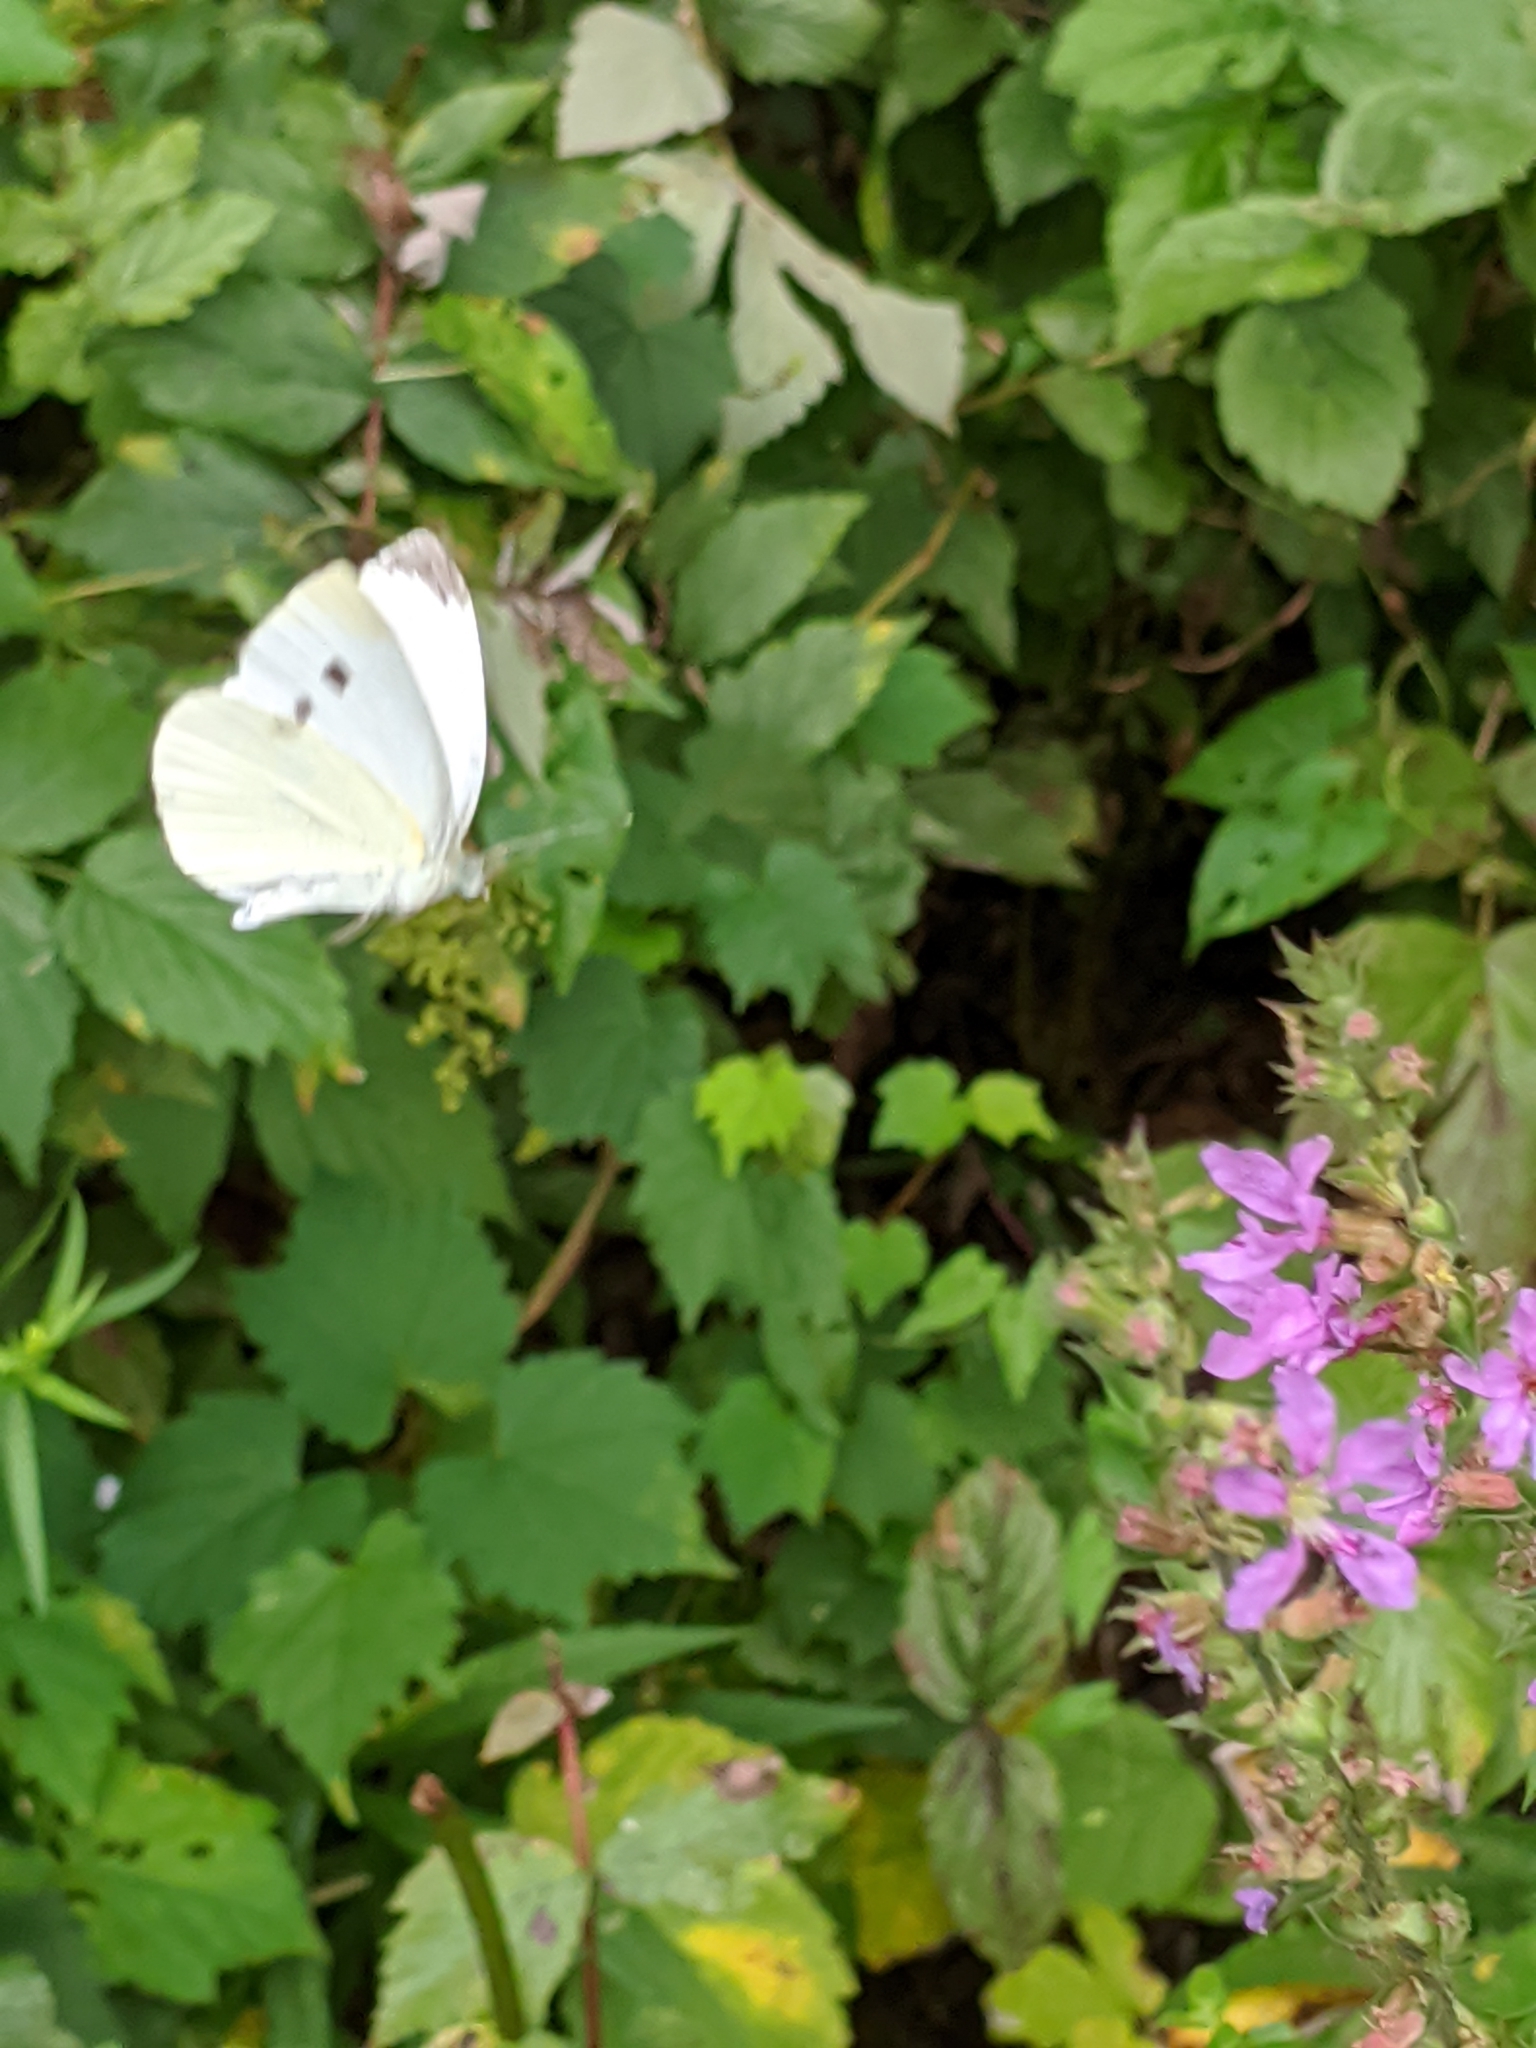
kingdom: Animalia
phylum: Arthropoda
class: Insecta
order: Lepidoptera
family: Pieridae
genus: Pieris
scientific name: Pieris rapae
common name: Small white
